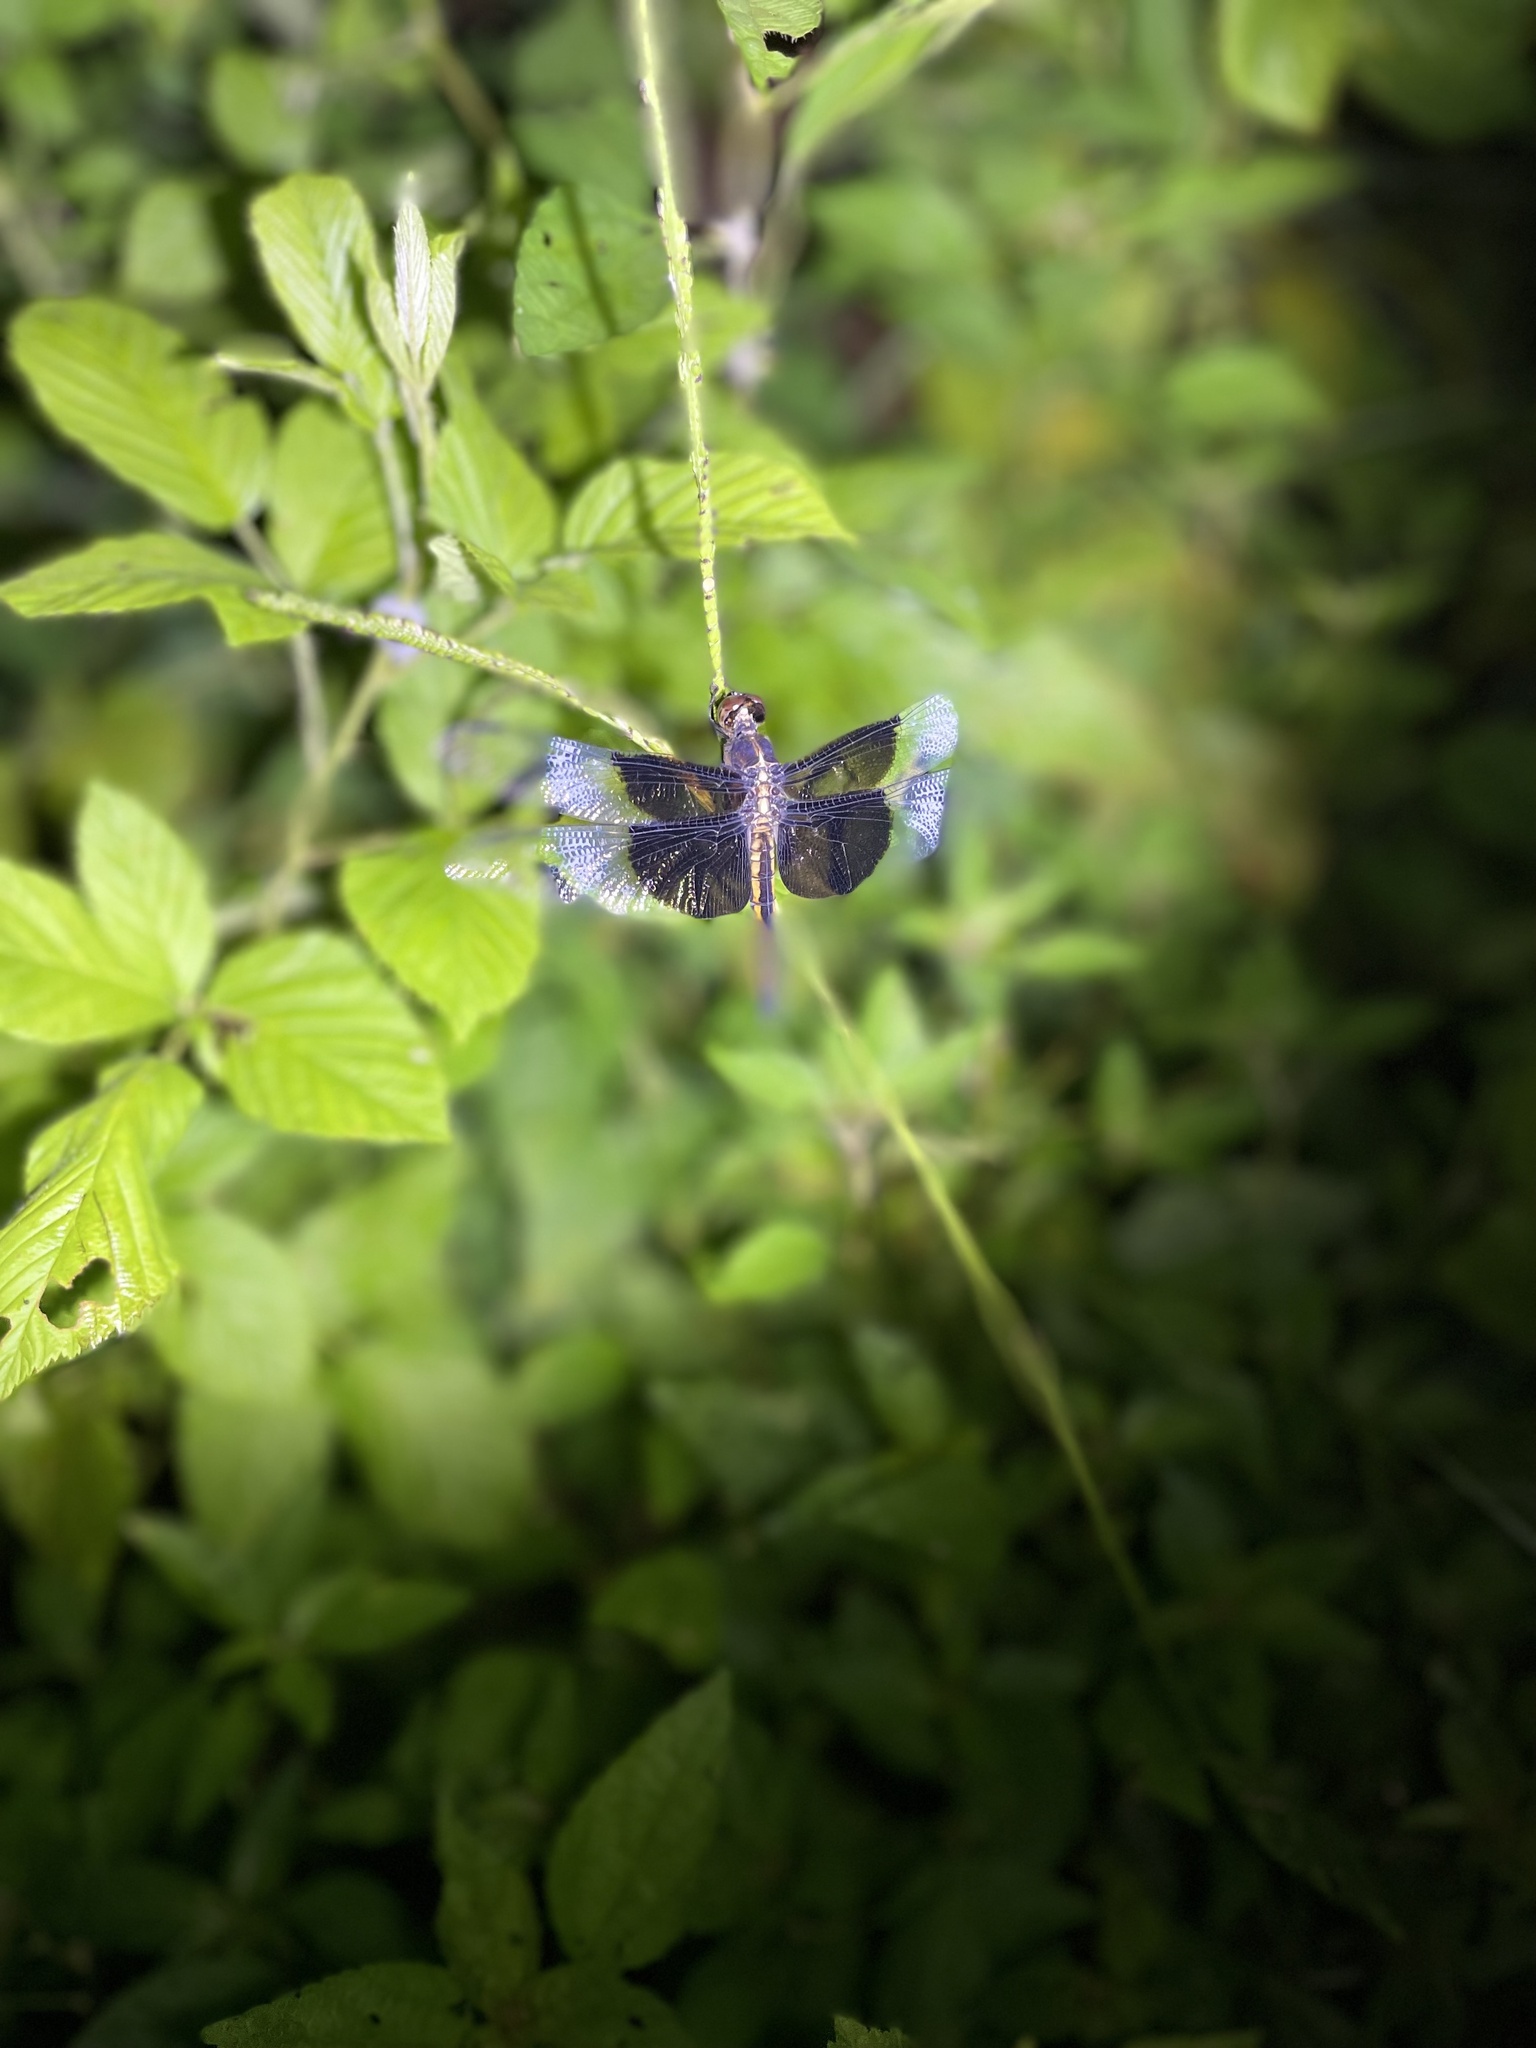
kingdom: Animalia
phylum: Arthropoda
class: Insecta
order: Odonata
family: Libellulidae
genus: Libellula
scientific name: Libellula luctuosa
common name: Widow skimmer
